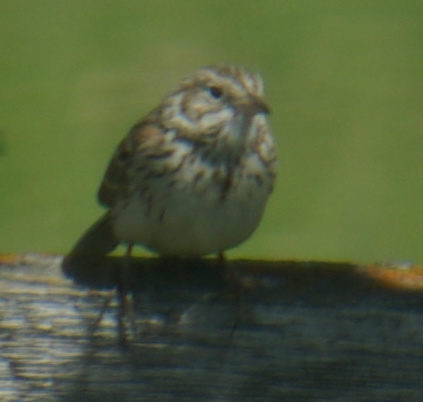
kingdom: Animalia
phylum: Chordata
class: Aves
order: Passeriformes
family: Passerellidae
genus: Pooecetes
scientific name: Pooecetes gramineus
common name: Vesper sparrow
